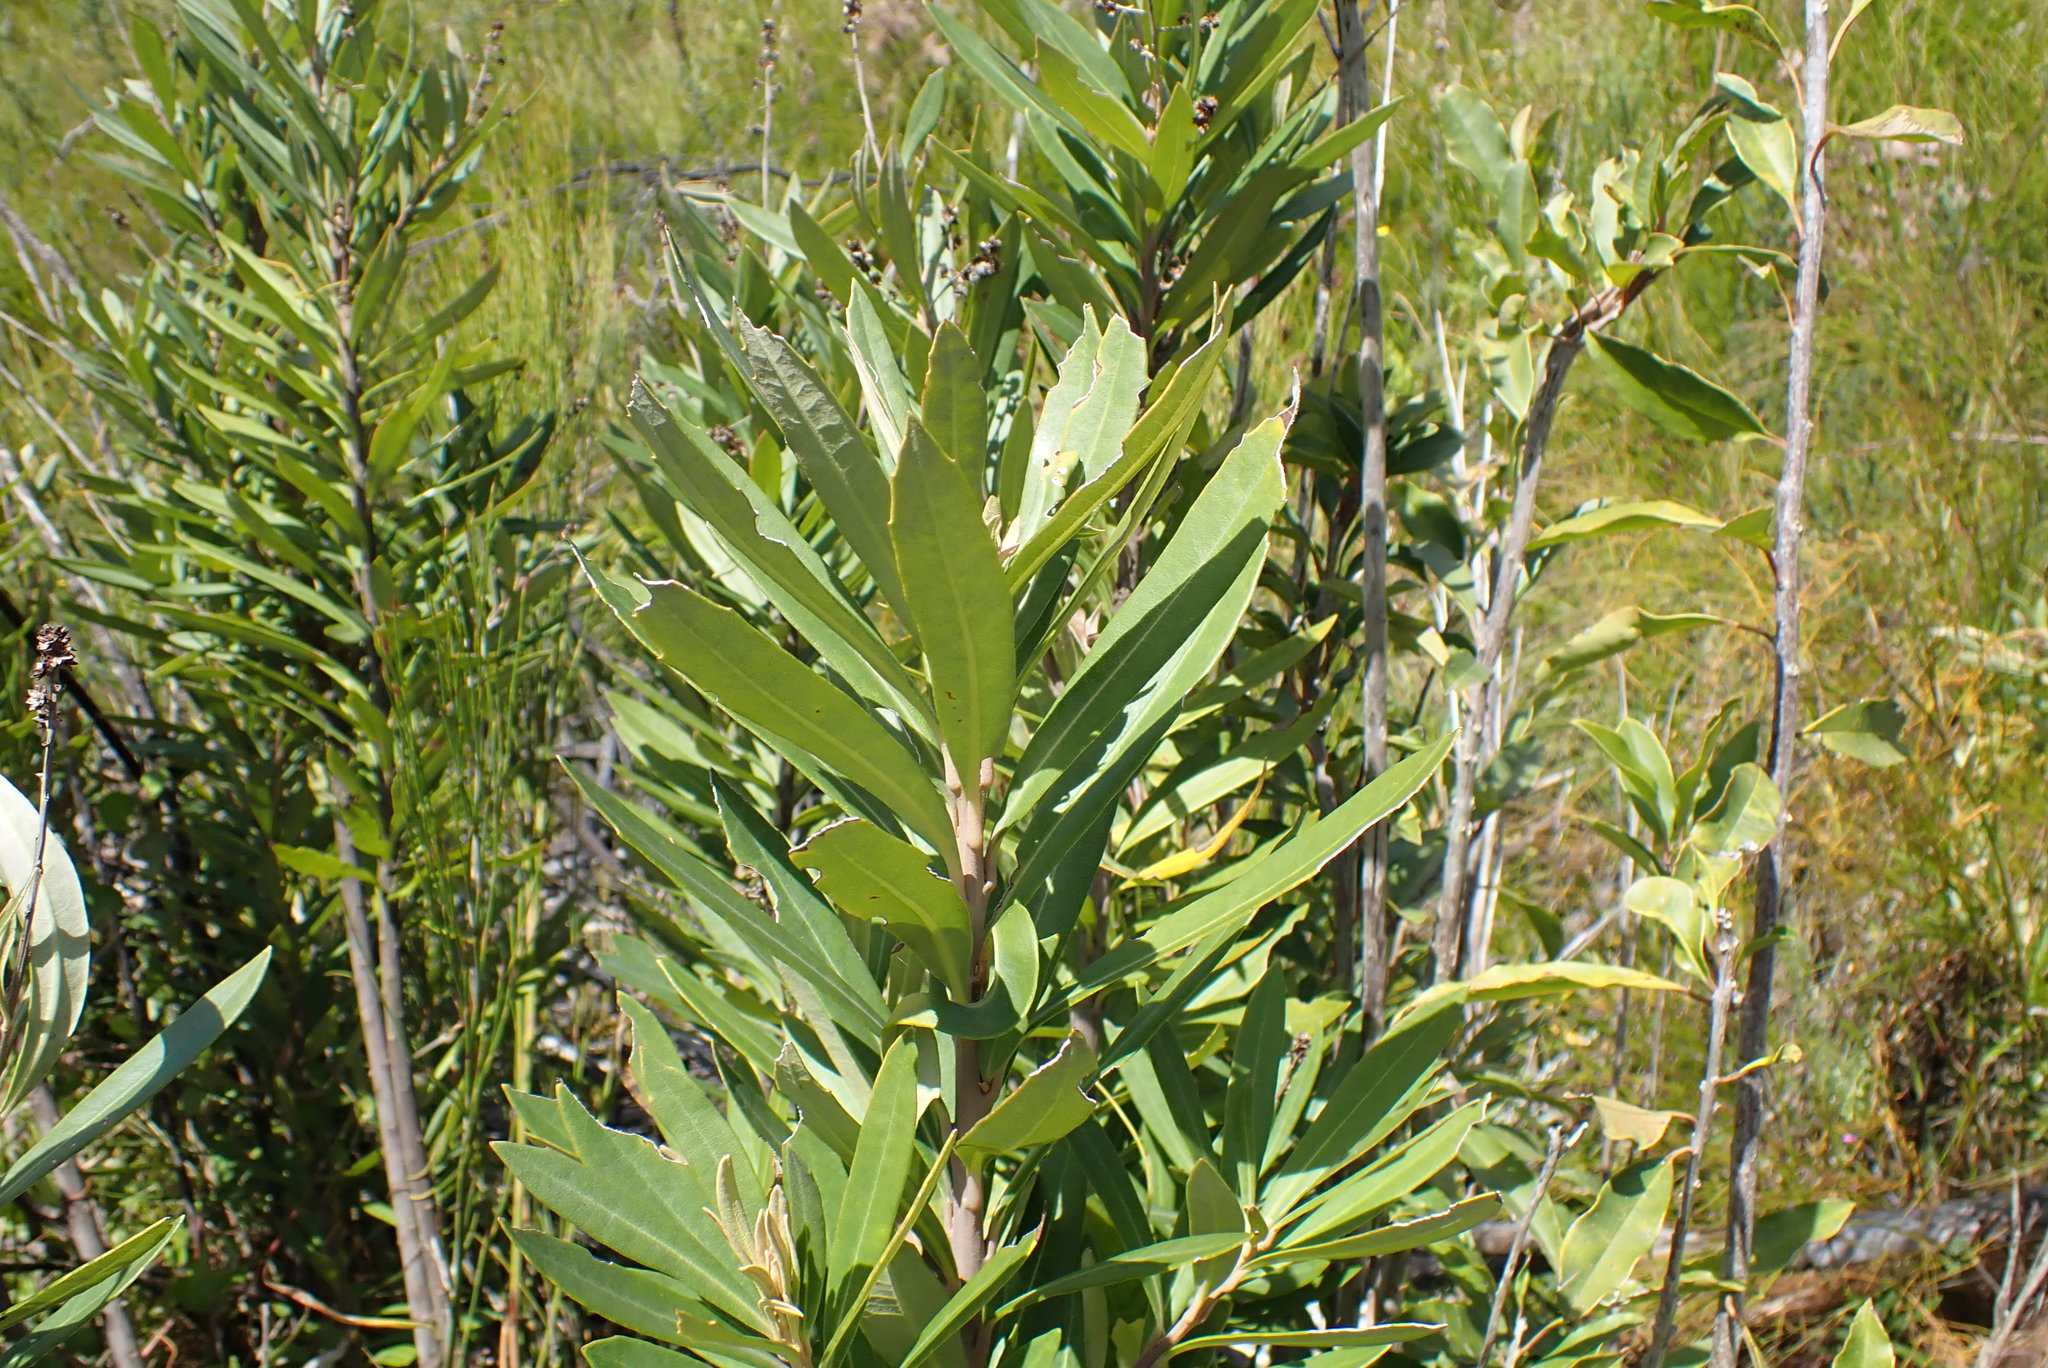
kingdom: Plantae
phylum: Tracheophyta
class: Magnoliopsida
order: Asterales
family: Asteraceae
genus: Brachylaena
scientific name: Brachylaena neriifolia
